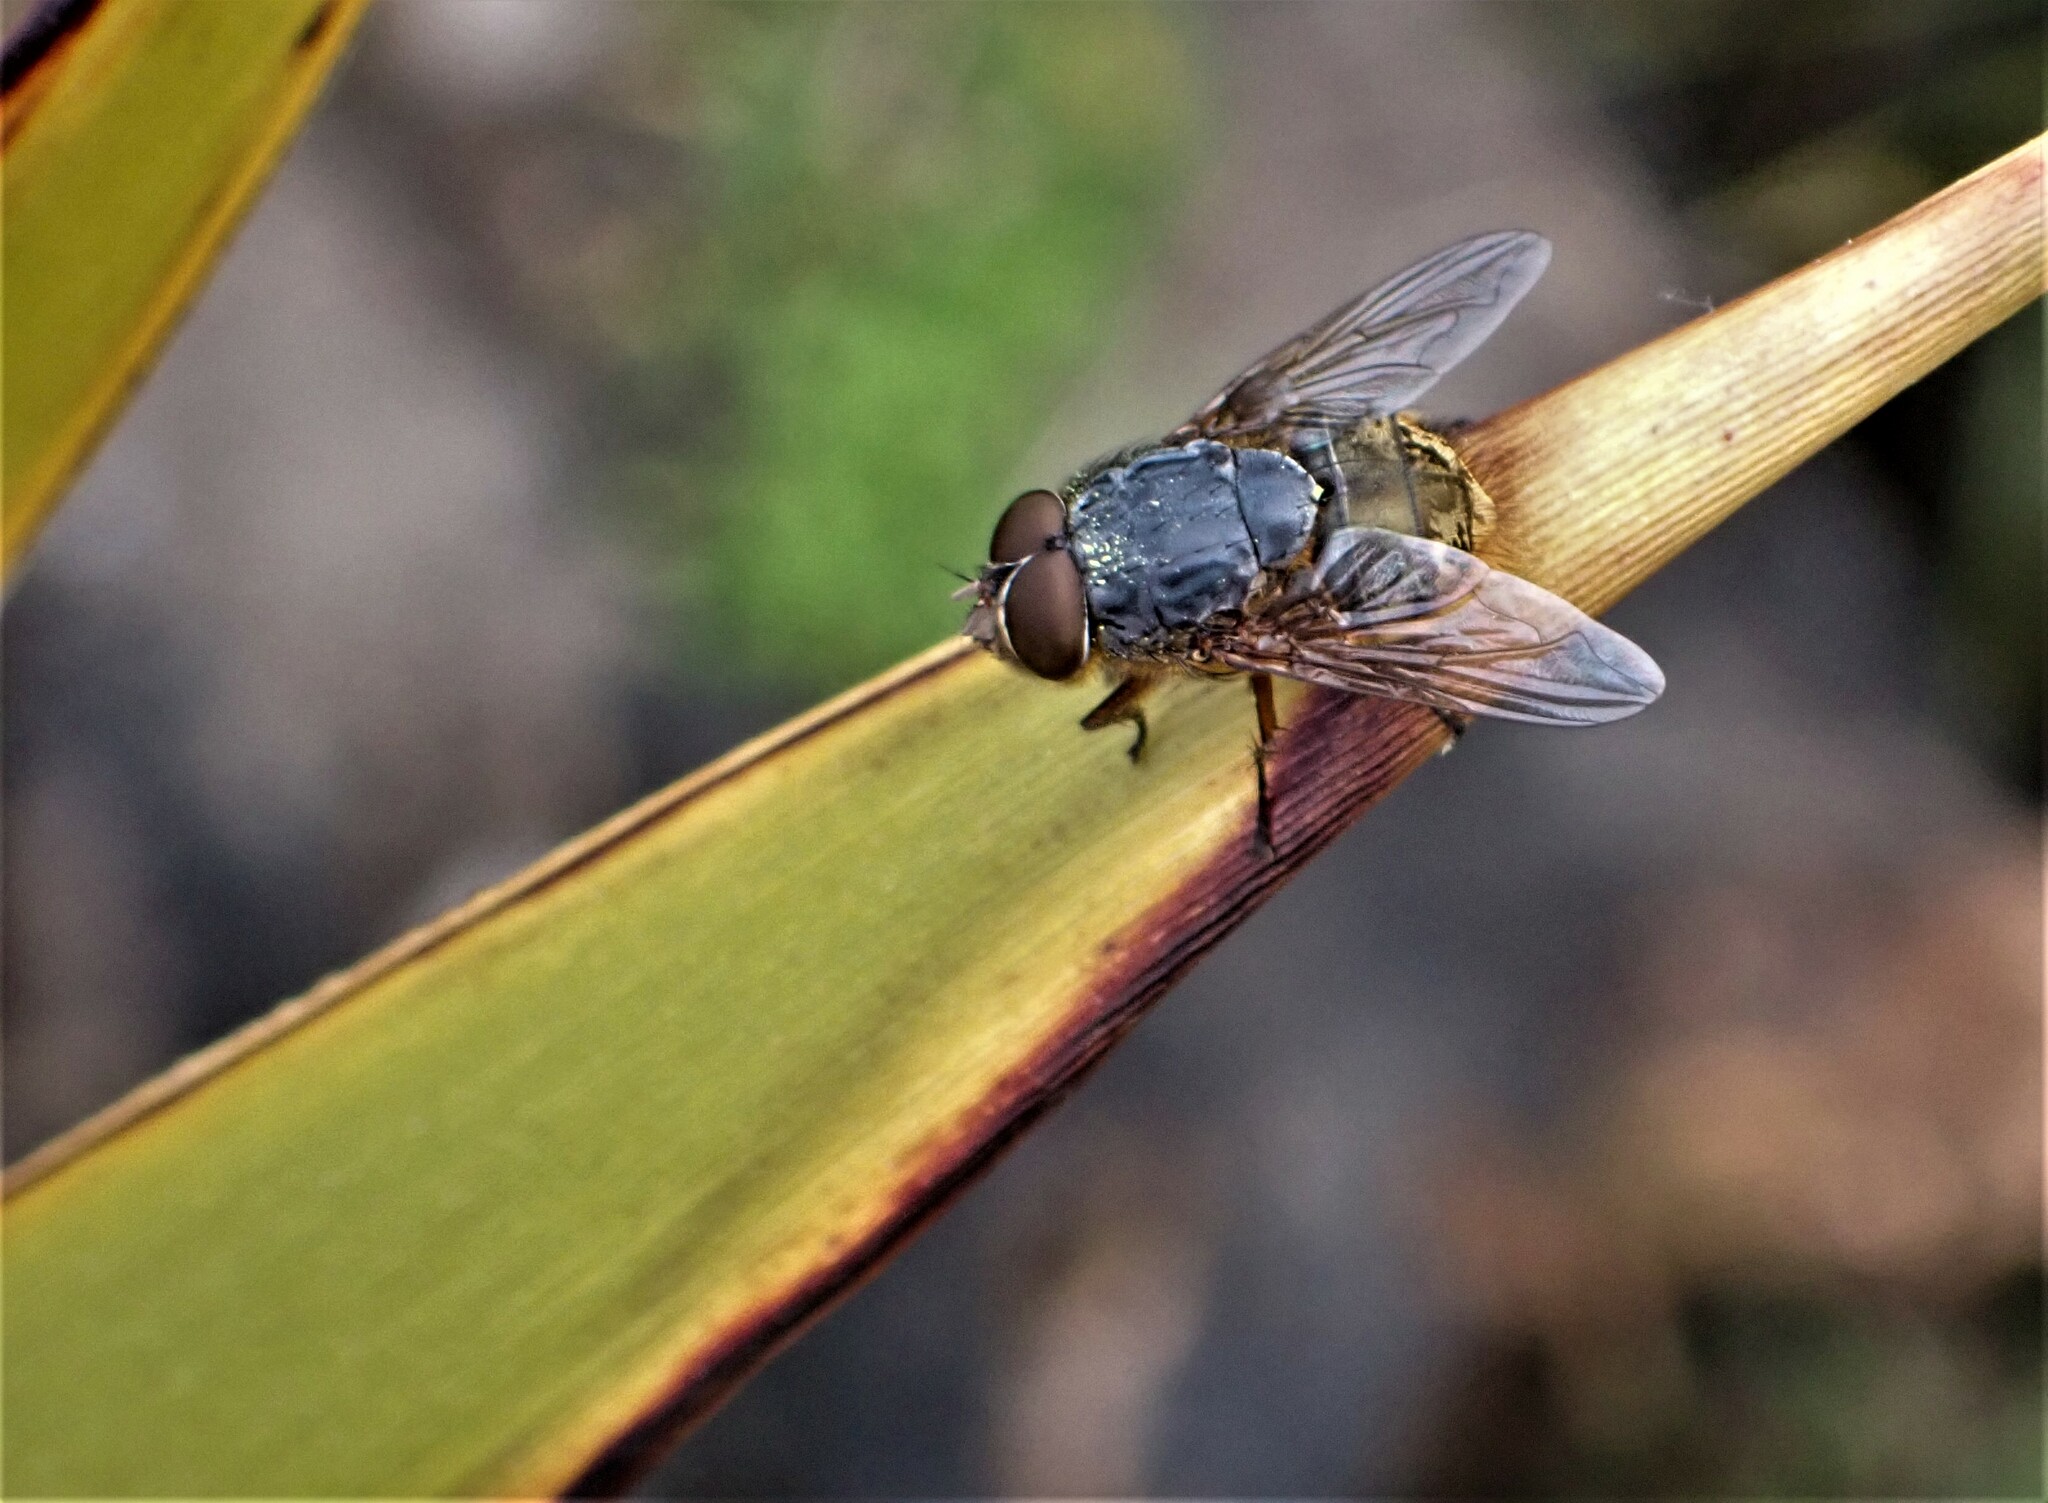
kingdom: Animalia
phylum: Arthropoda
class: Insecta
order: Diptera
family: Calliphoridae
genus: Calliphora
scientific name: Calliphora stygia
